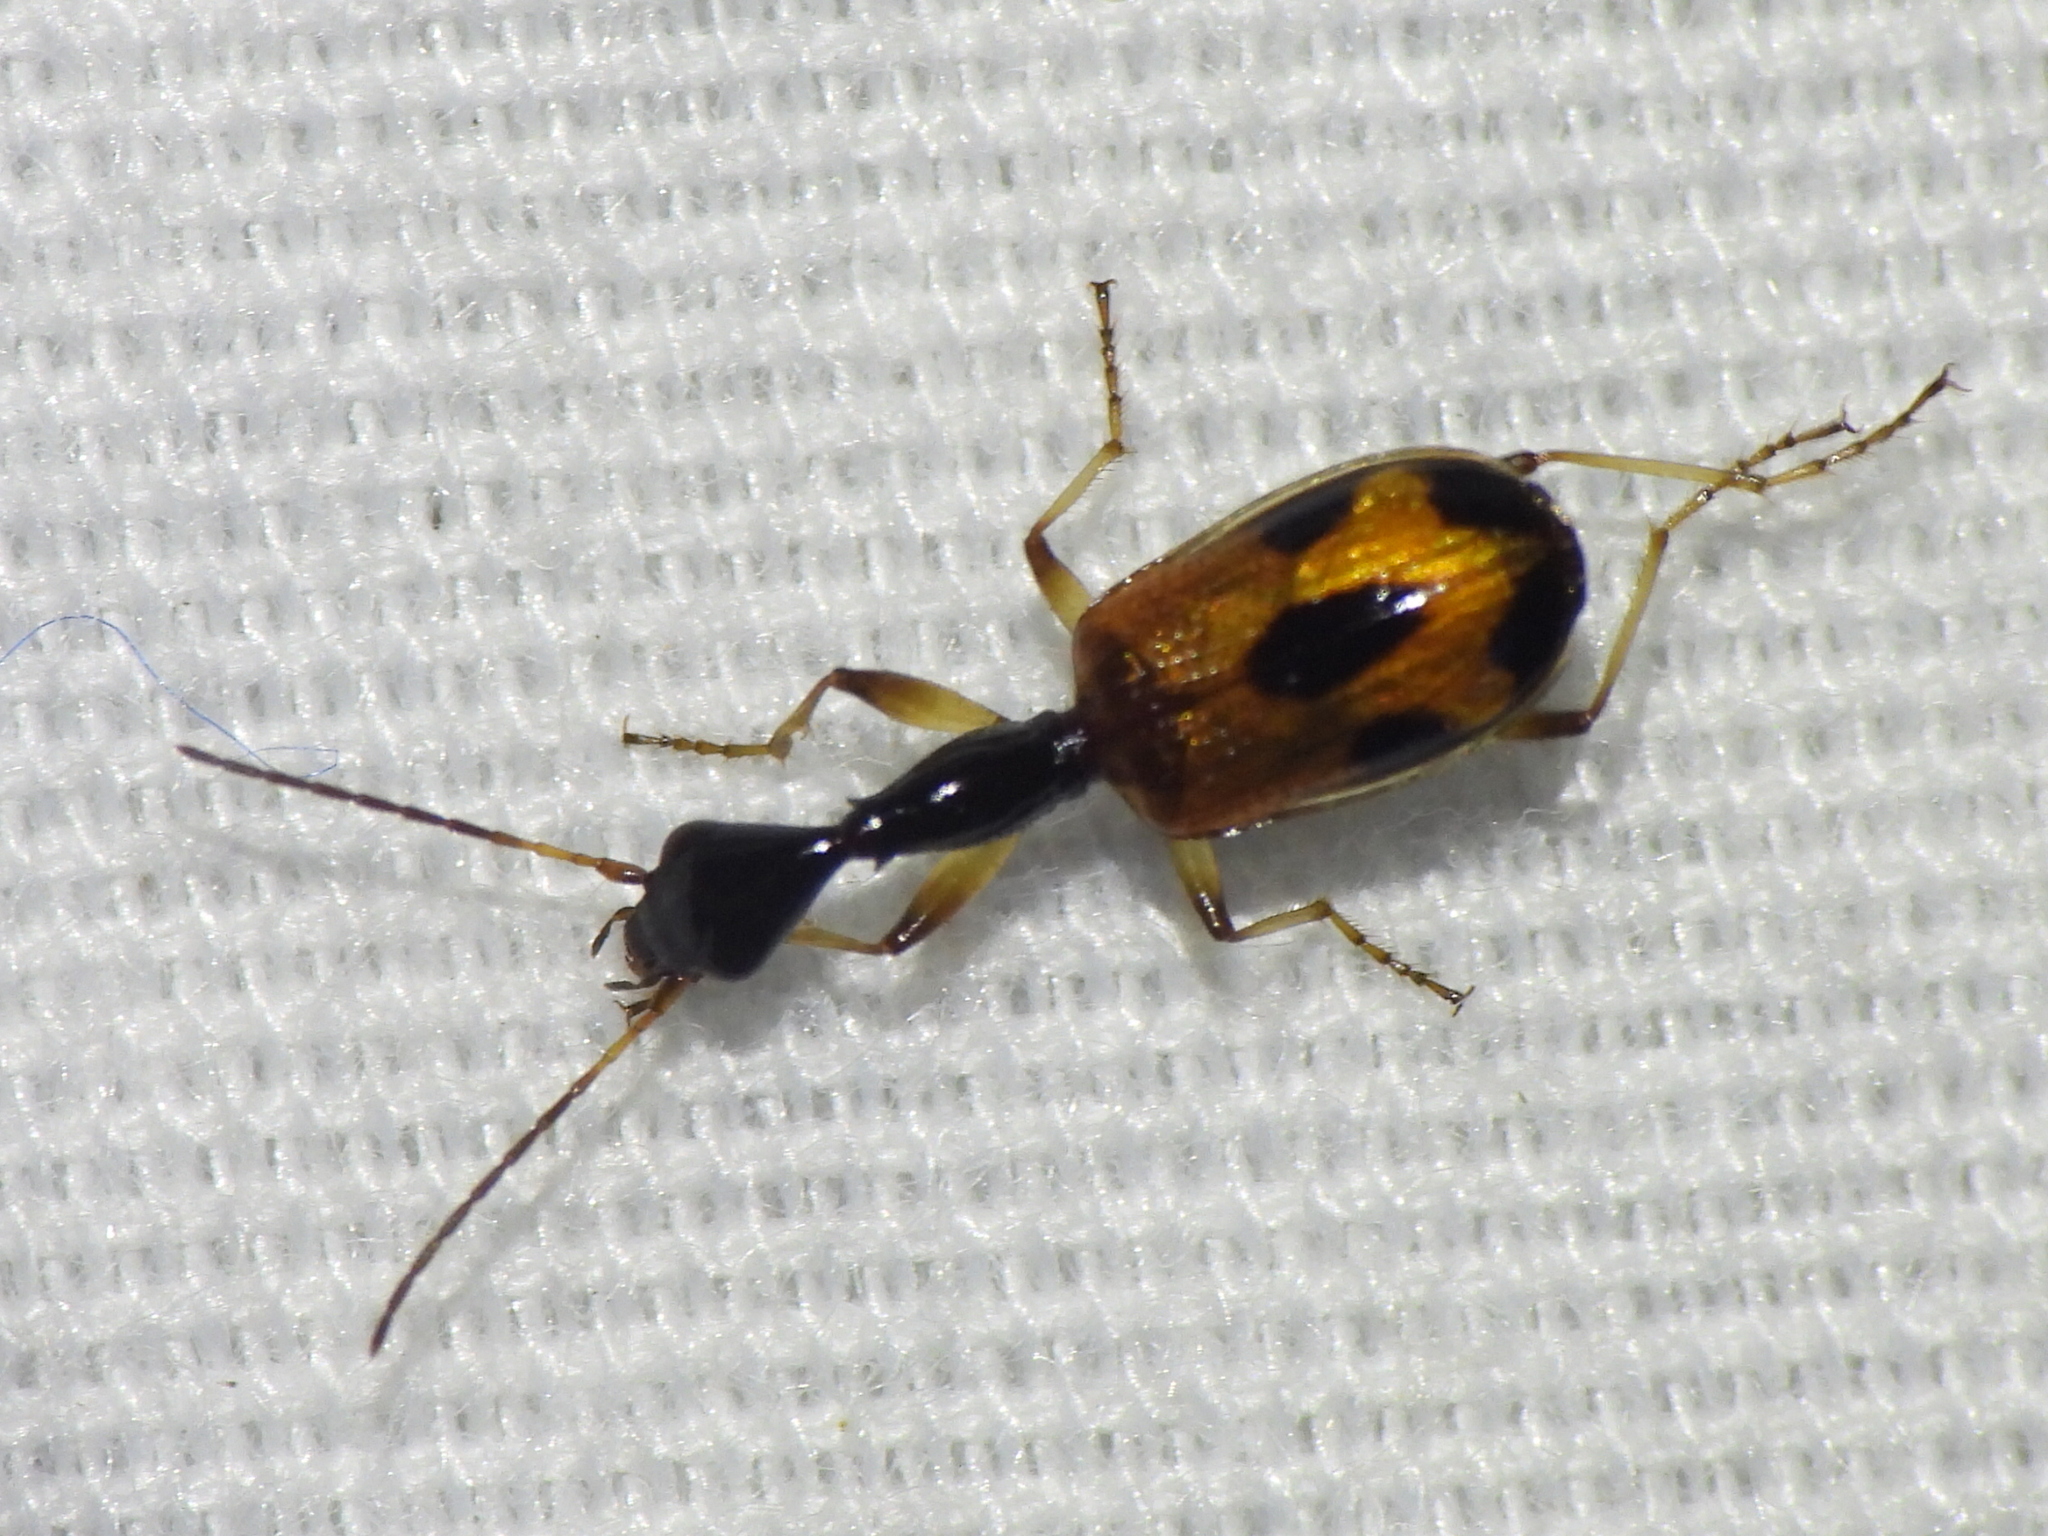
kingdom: Animalia
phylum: Arthropoda
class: Insecta
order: Coleoptera
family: Carabidae
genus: Colliuris
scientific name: Colliuris pensylvanica
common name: Long-necked ground beetle
